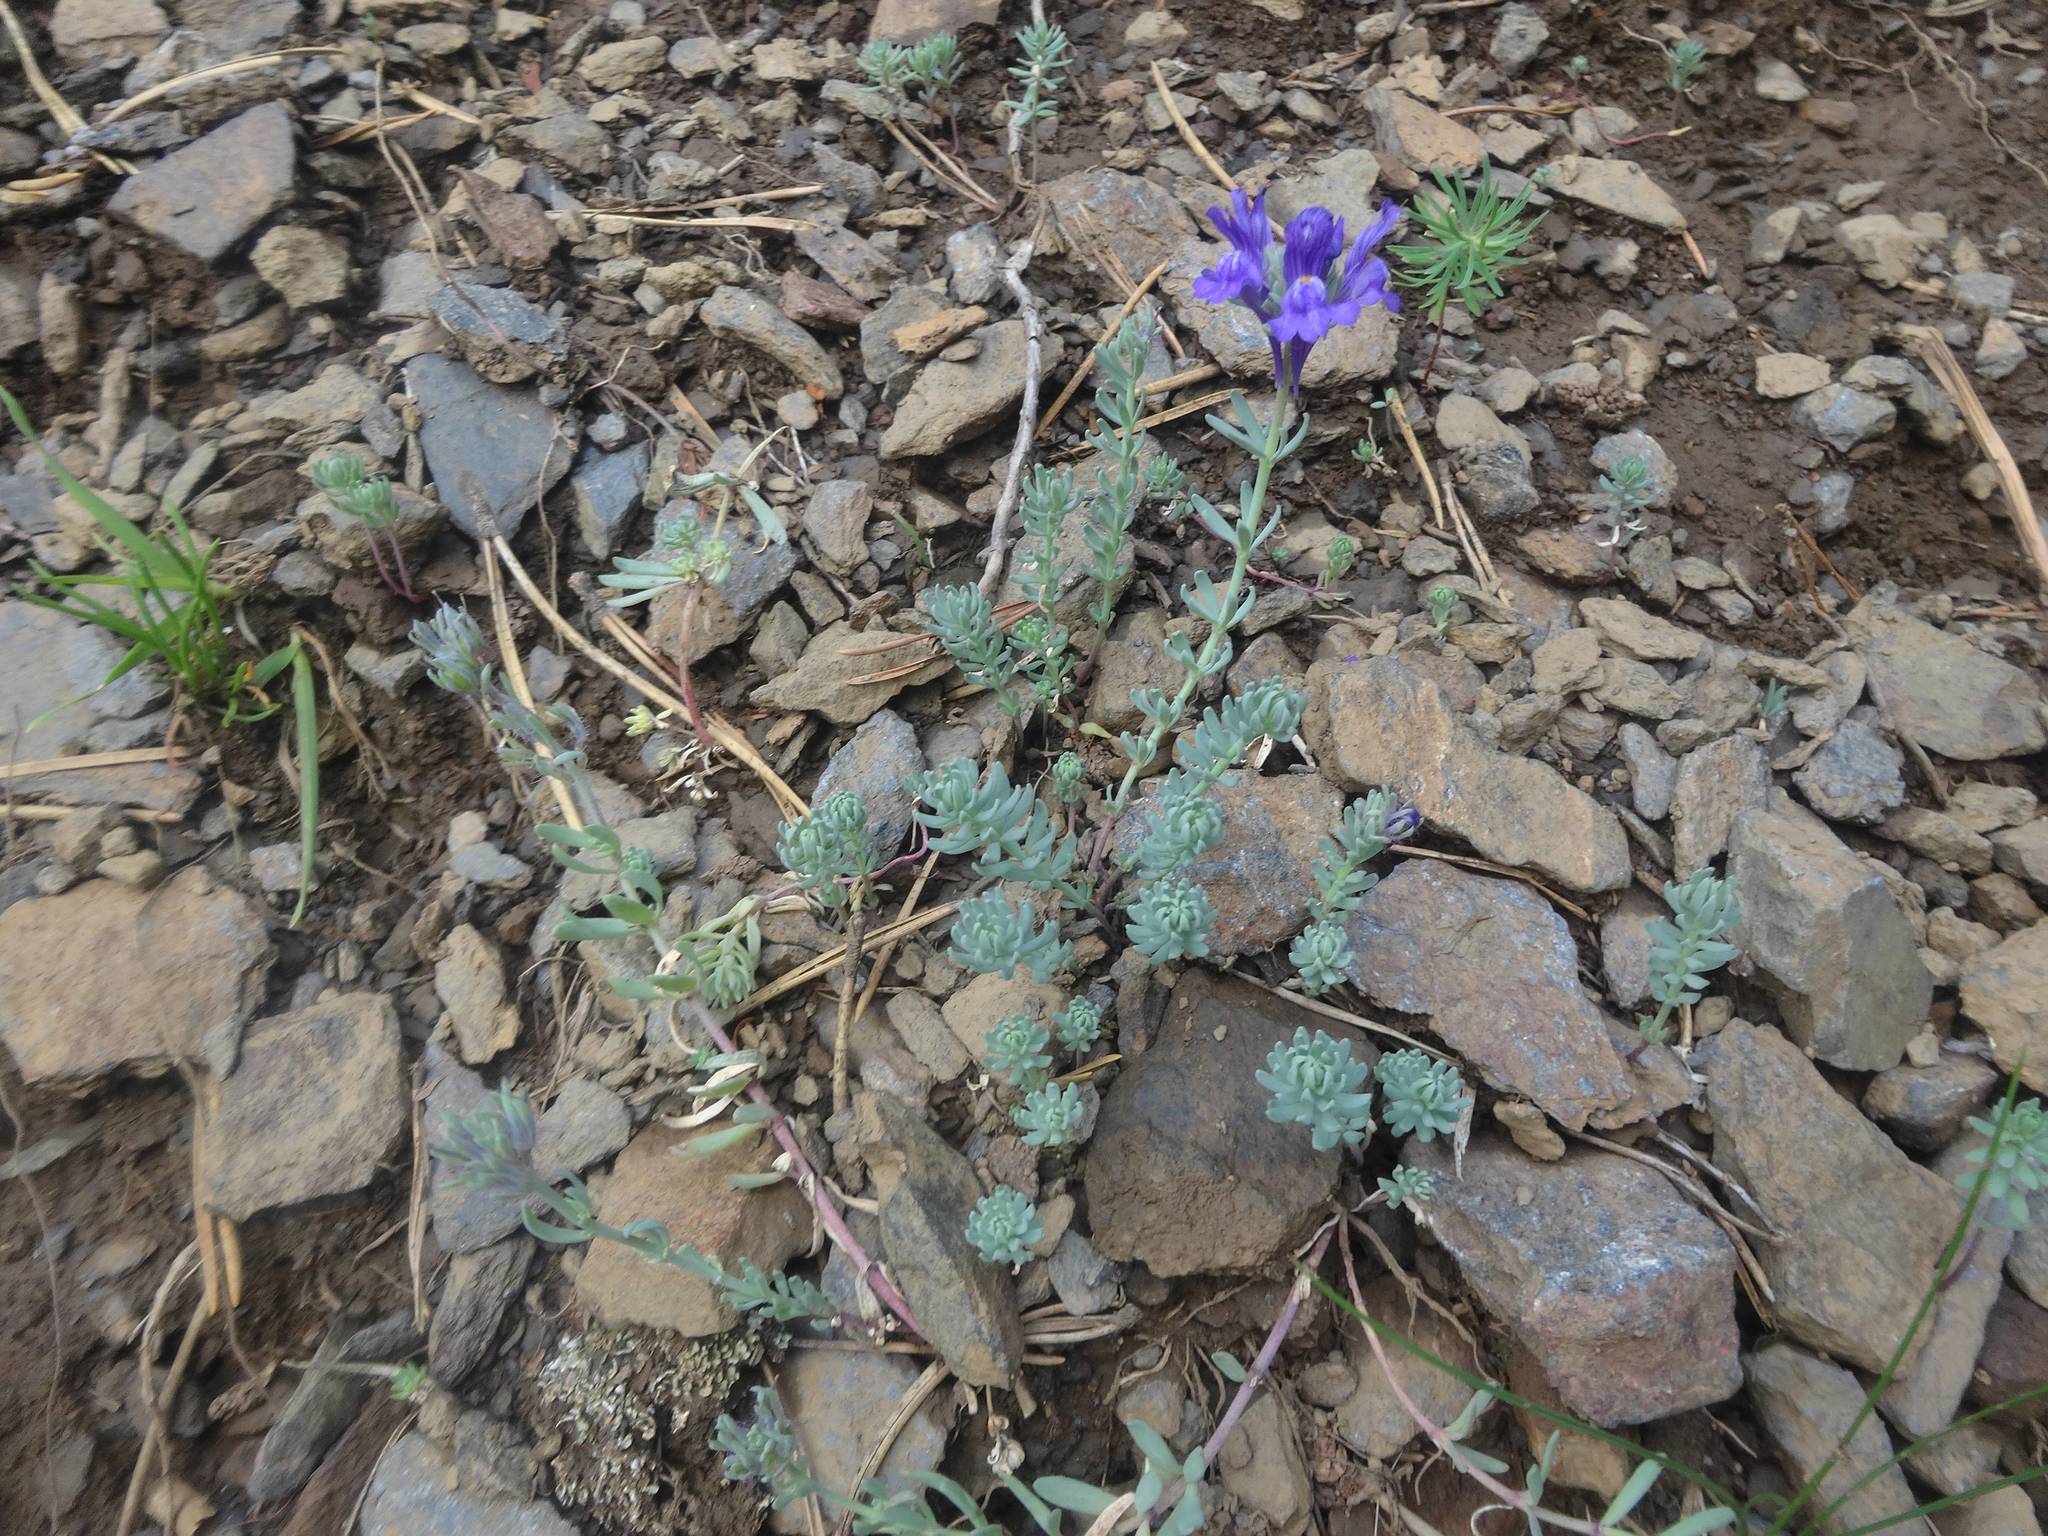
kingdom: Plantae
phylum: Tracheophyta
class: Magnoliopsida
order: Lamiales
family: Plantaginaceae
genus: Linaria
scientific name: Linaria alpina
